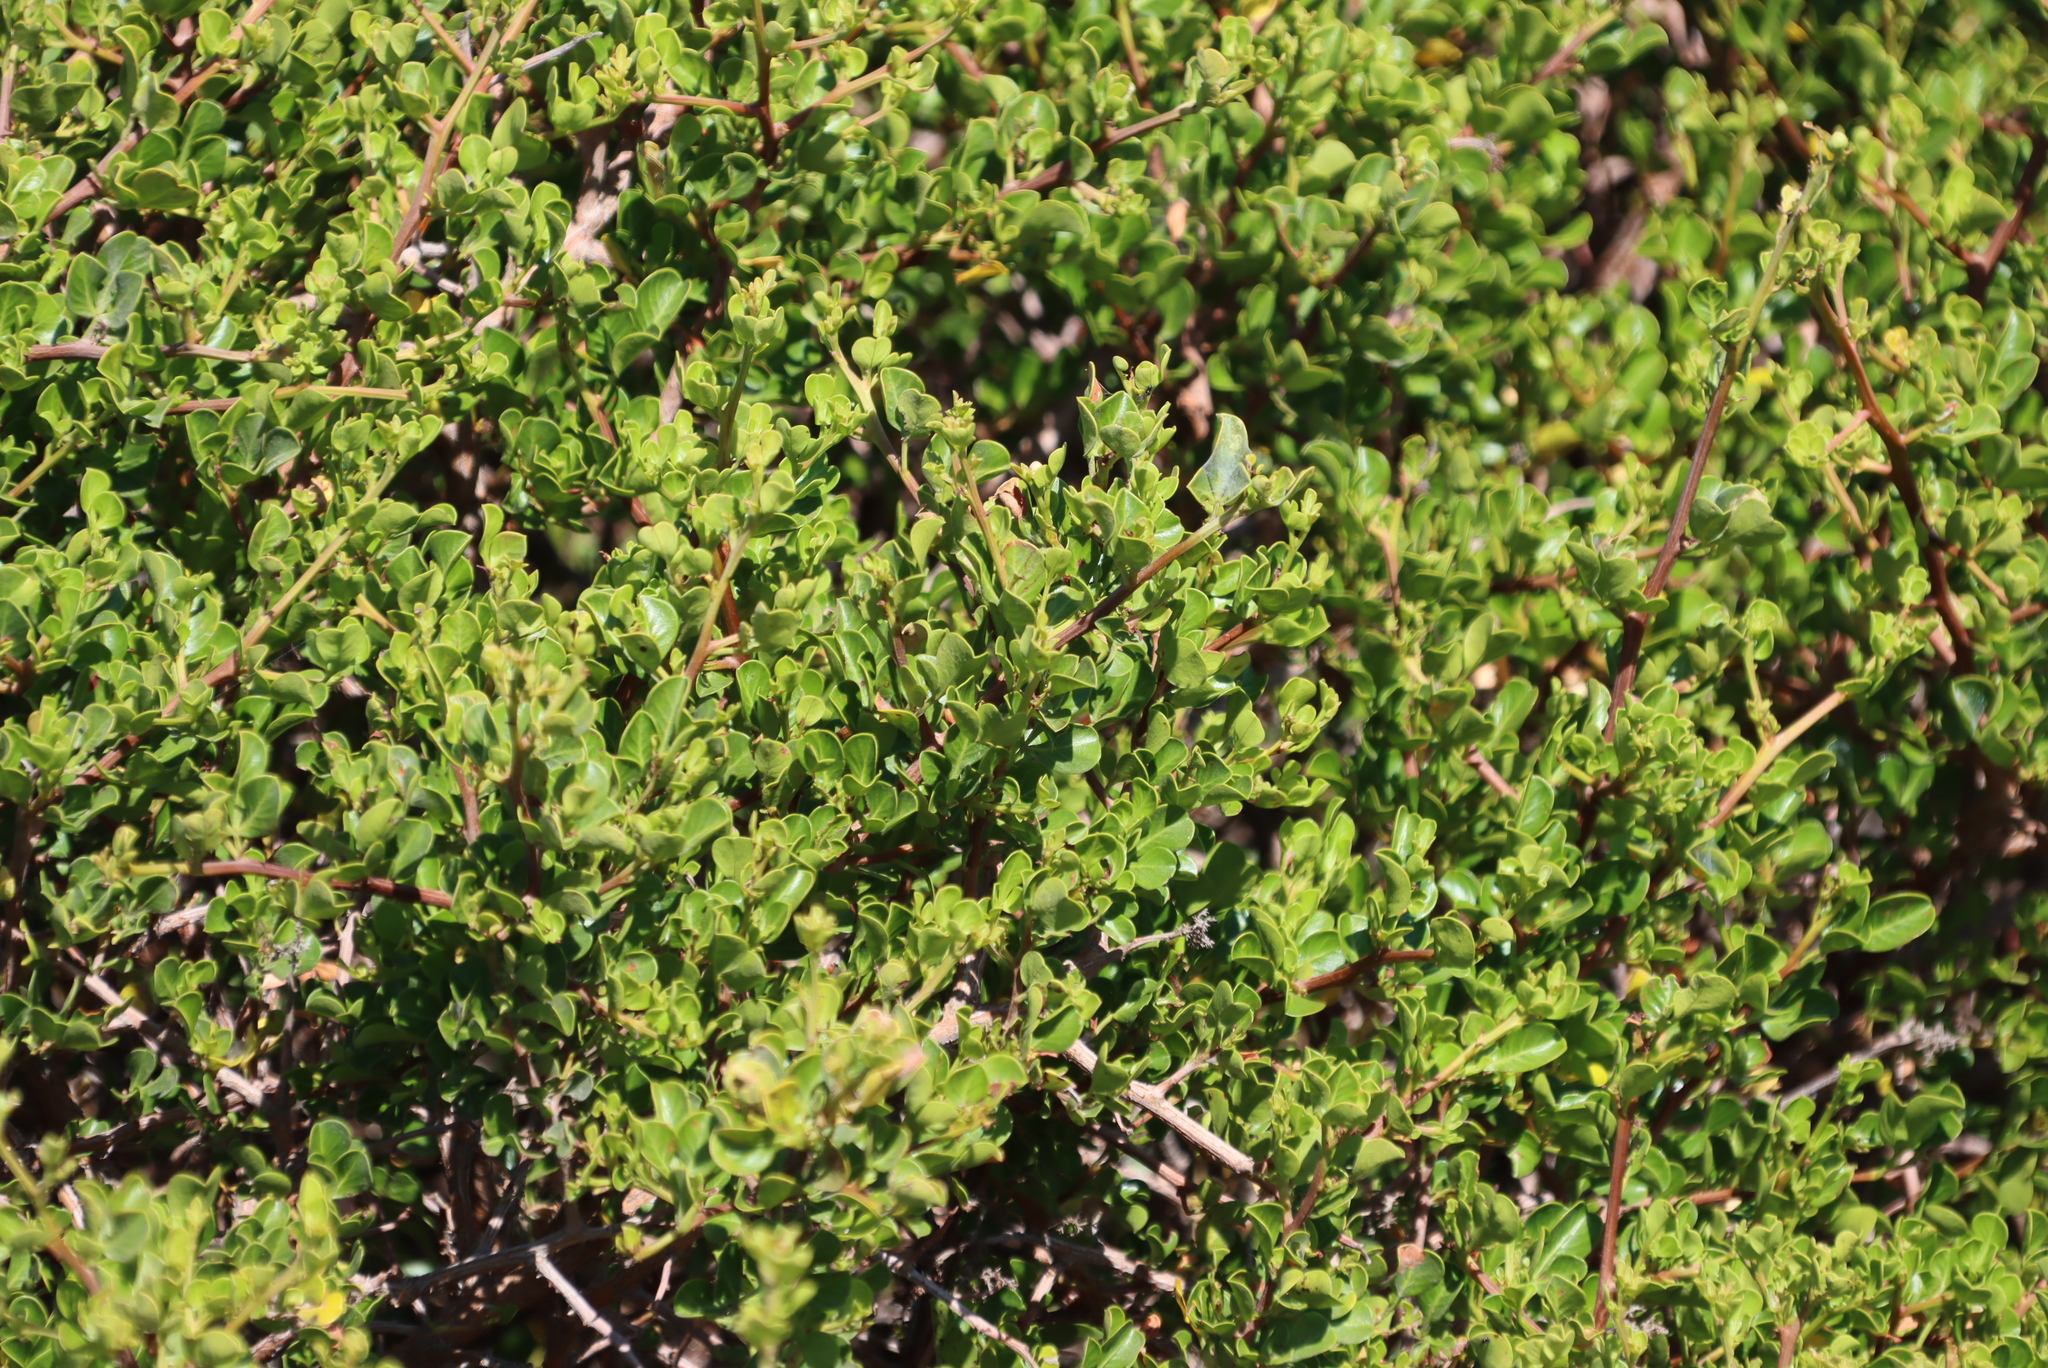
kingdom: Plantae
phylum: Tracheophyta
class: Magnoliopsida
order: Sapindales
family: Anacardiaceae
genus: Searsia
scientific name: Searsia glauca
